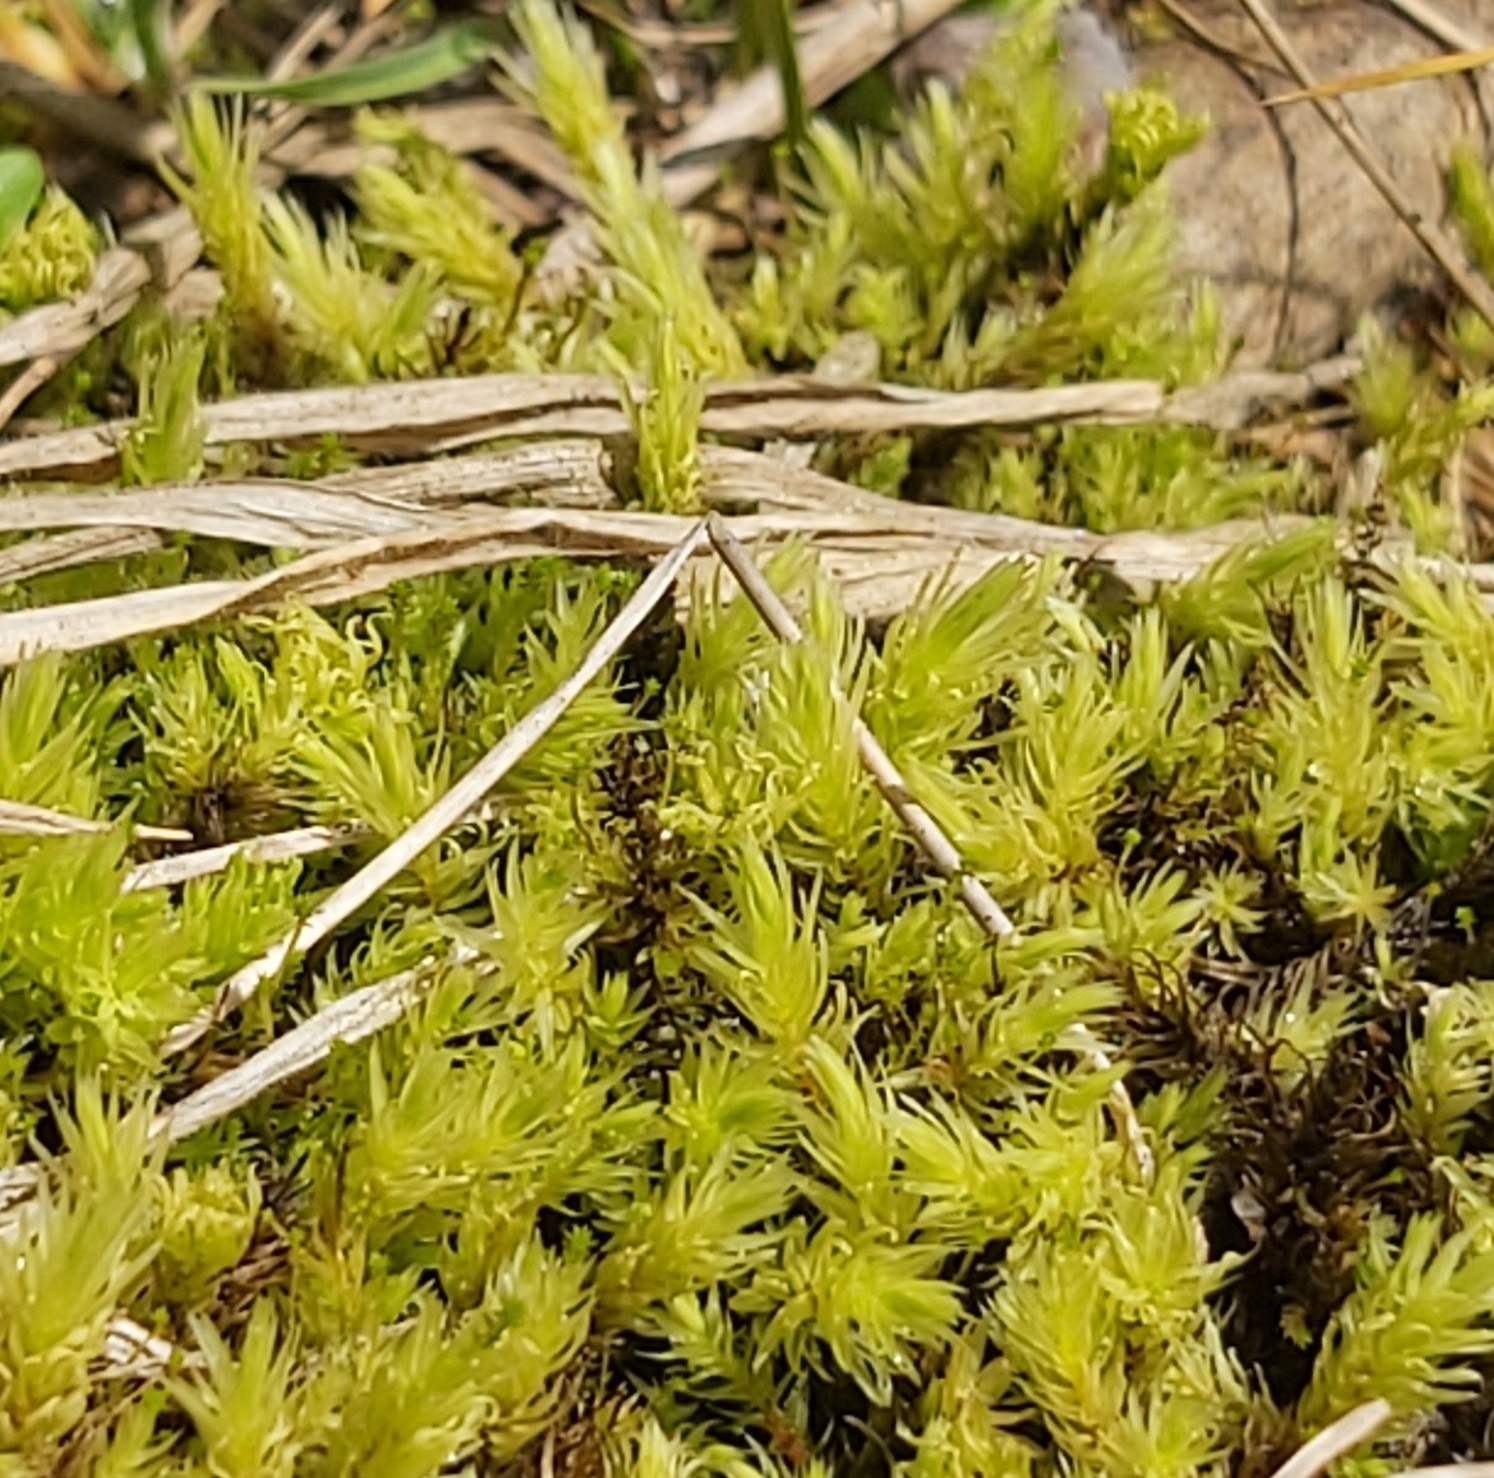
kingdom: Plantae
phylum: Bryophyta
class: Bryopsida
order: Aulacomniales
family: Aulacomniaceae
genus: Aulacomnium
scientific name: Aulacomnium palustre
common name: Bog groove-moss
